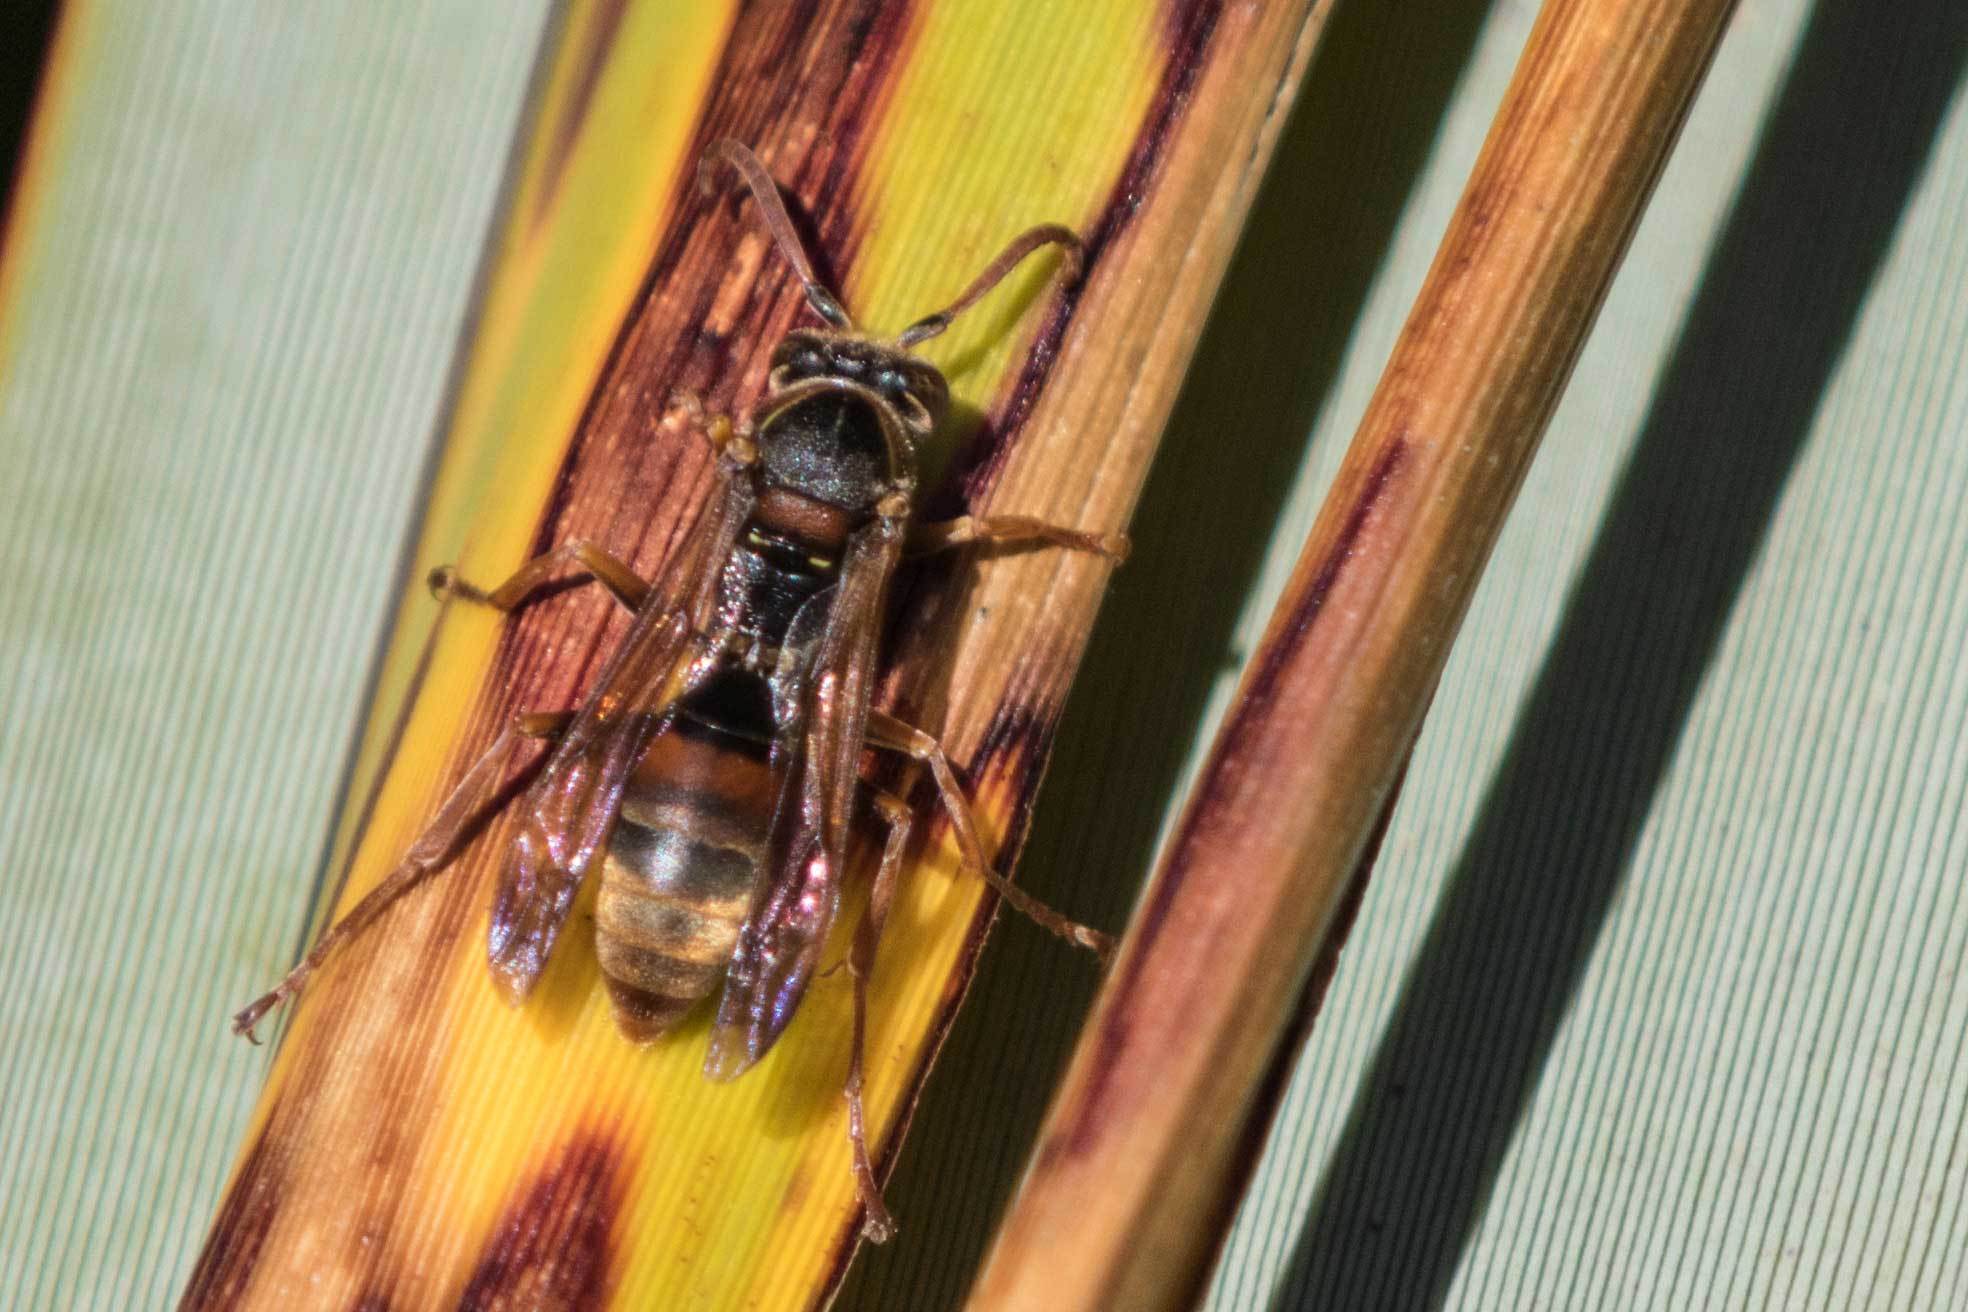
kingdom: Animalia
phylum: Arthropoda
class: Insecta
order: Hymenoptera
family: Eumenidae
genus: Polistes
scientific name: Polistes humilis
